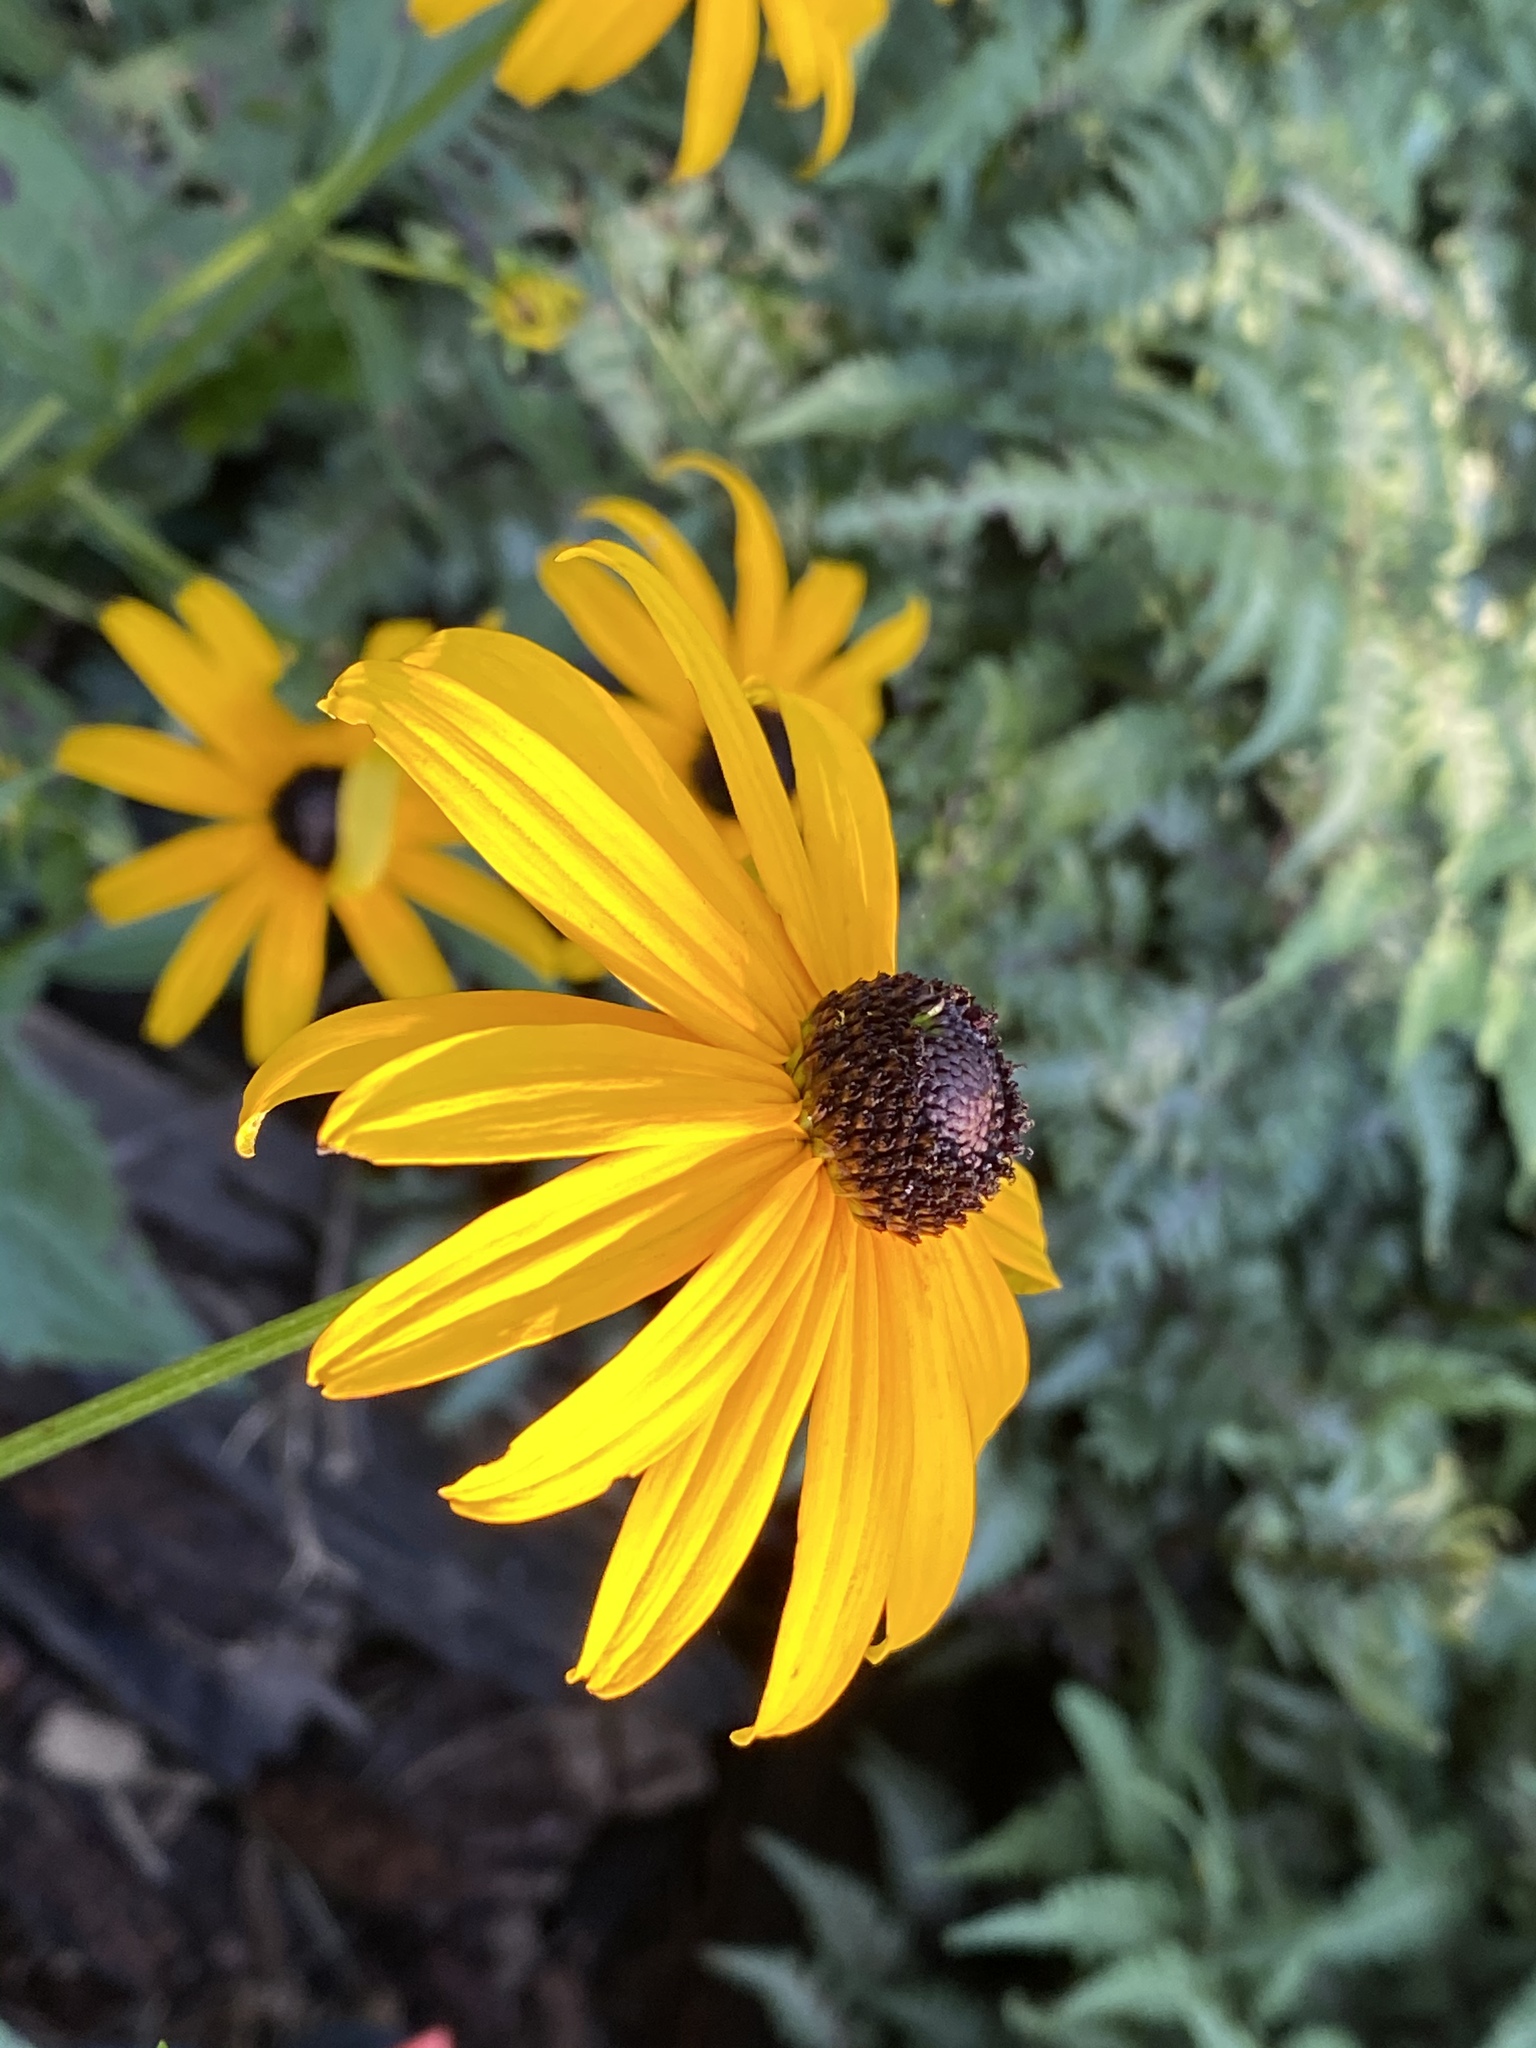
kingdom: Plantae
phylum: Tracheophyta
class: Magnoliopsida
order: Asterales
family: Asteraceae
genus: Rudbeckia
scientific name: Rudbeckia hirta
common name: Black-eyed-susan
